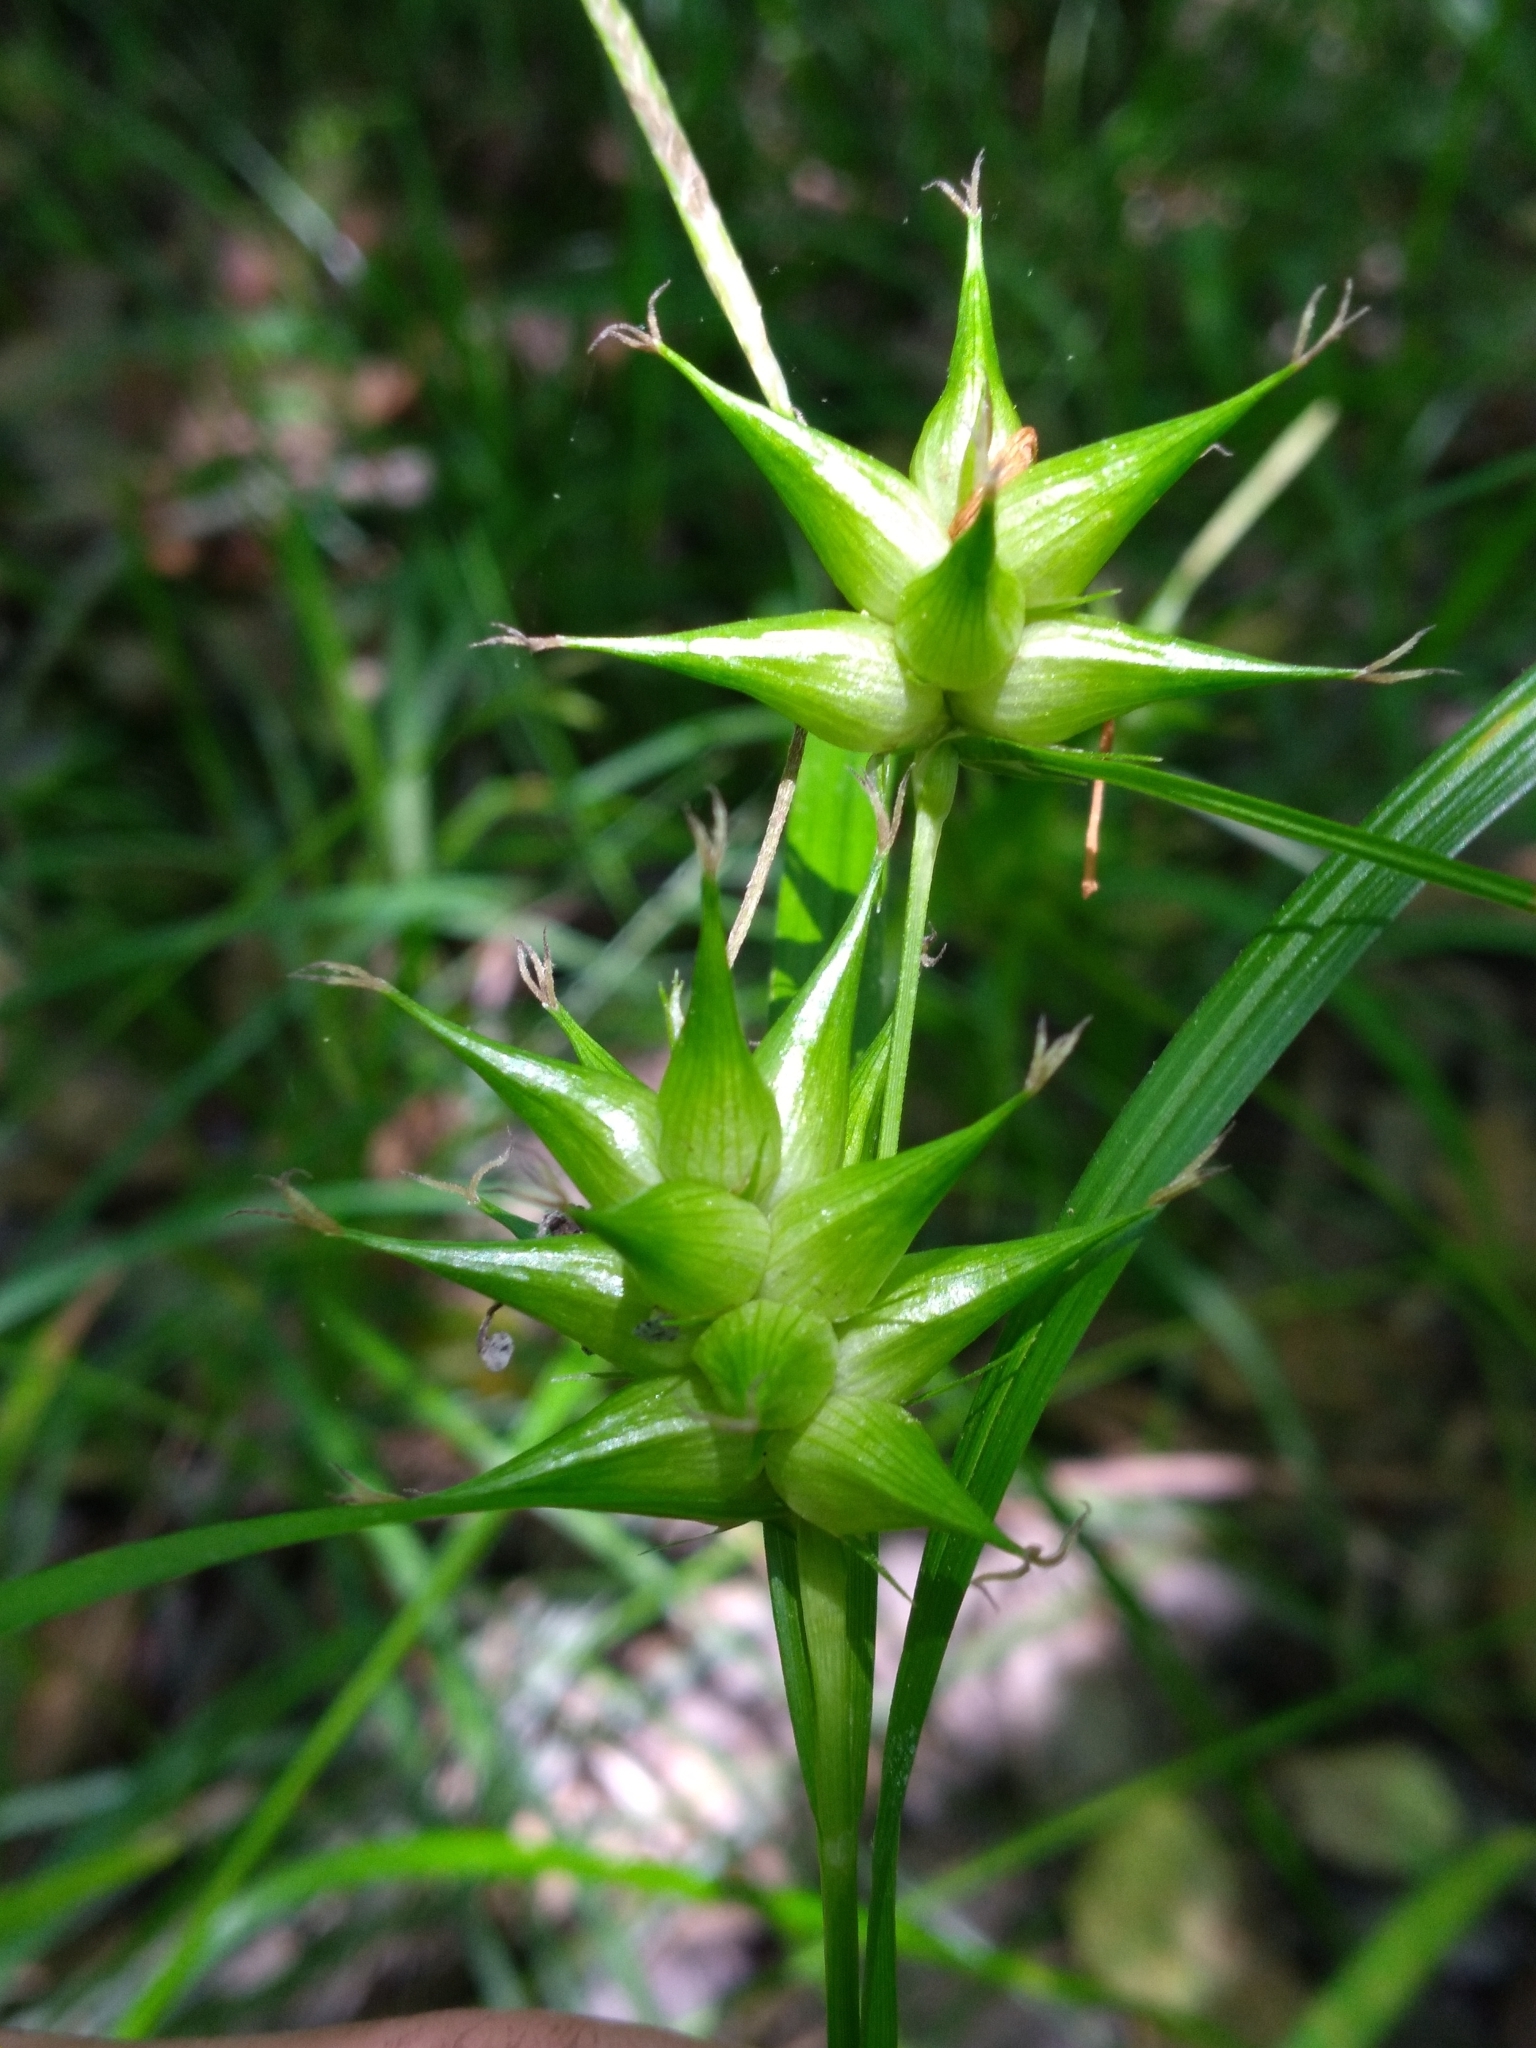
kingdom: Plantae
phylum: Tracheophyta
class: Liliopsida
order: Poales
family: Cyperaceae
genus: Carex
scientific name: Carex intumescens
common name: Greater bladder sedge
